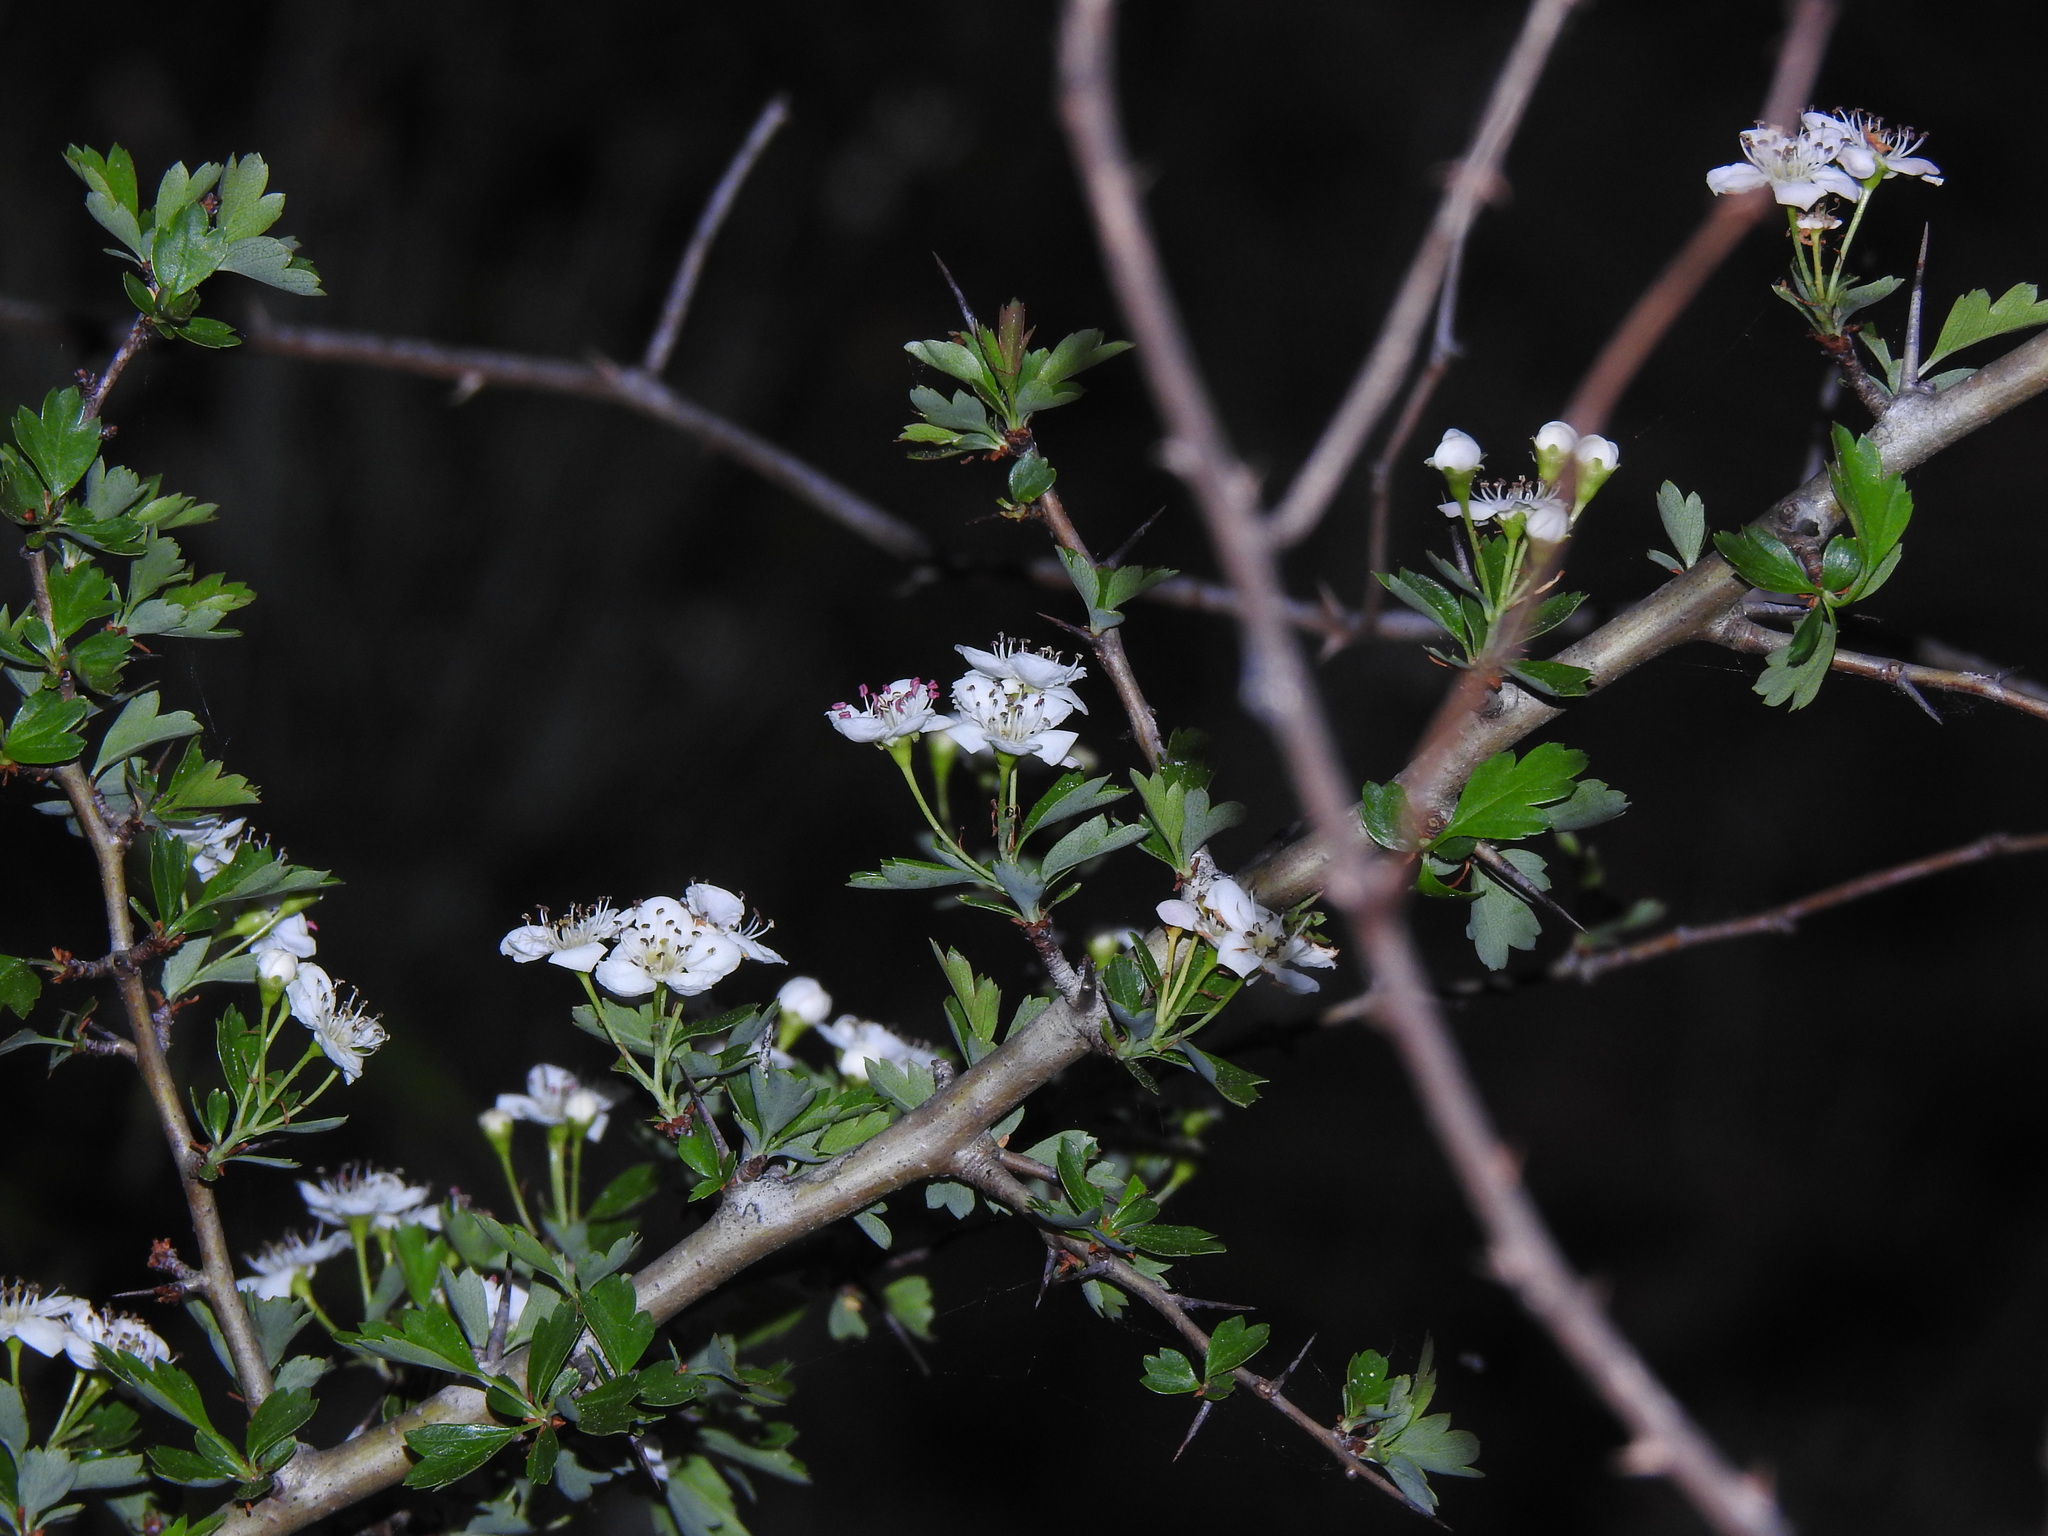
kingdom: Plantae
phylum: Tracheophyta
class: Magnoliopsida
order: Rosales
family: Rosaceae
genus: Crataegus
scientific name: Crataegus monogyna
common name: Hawthorn
